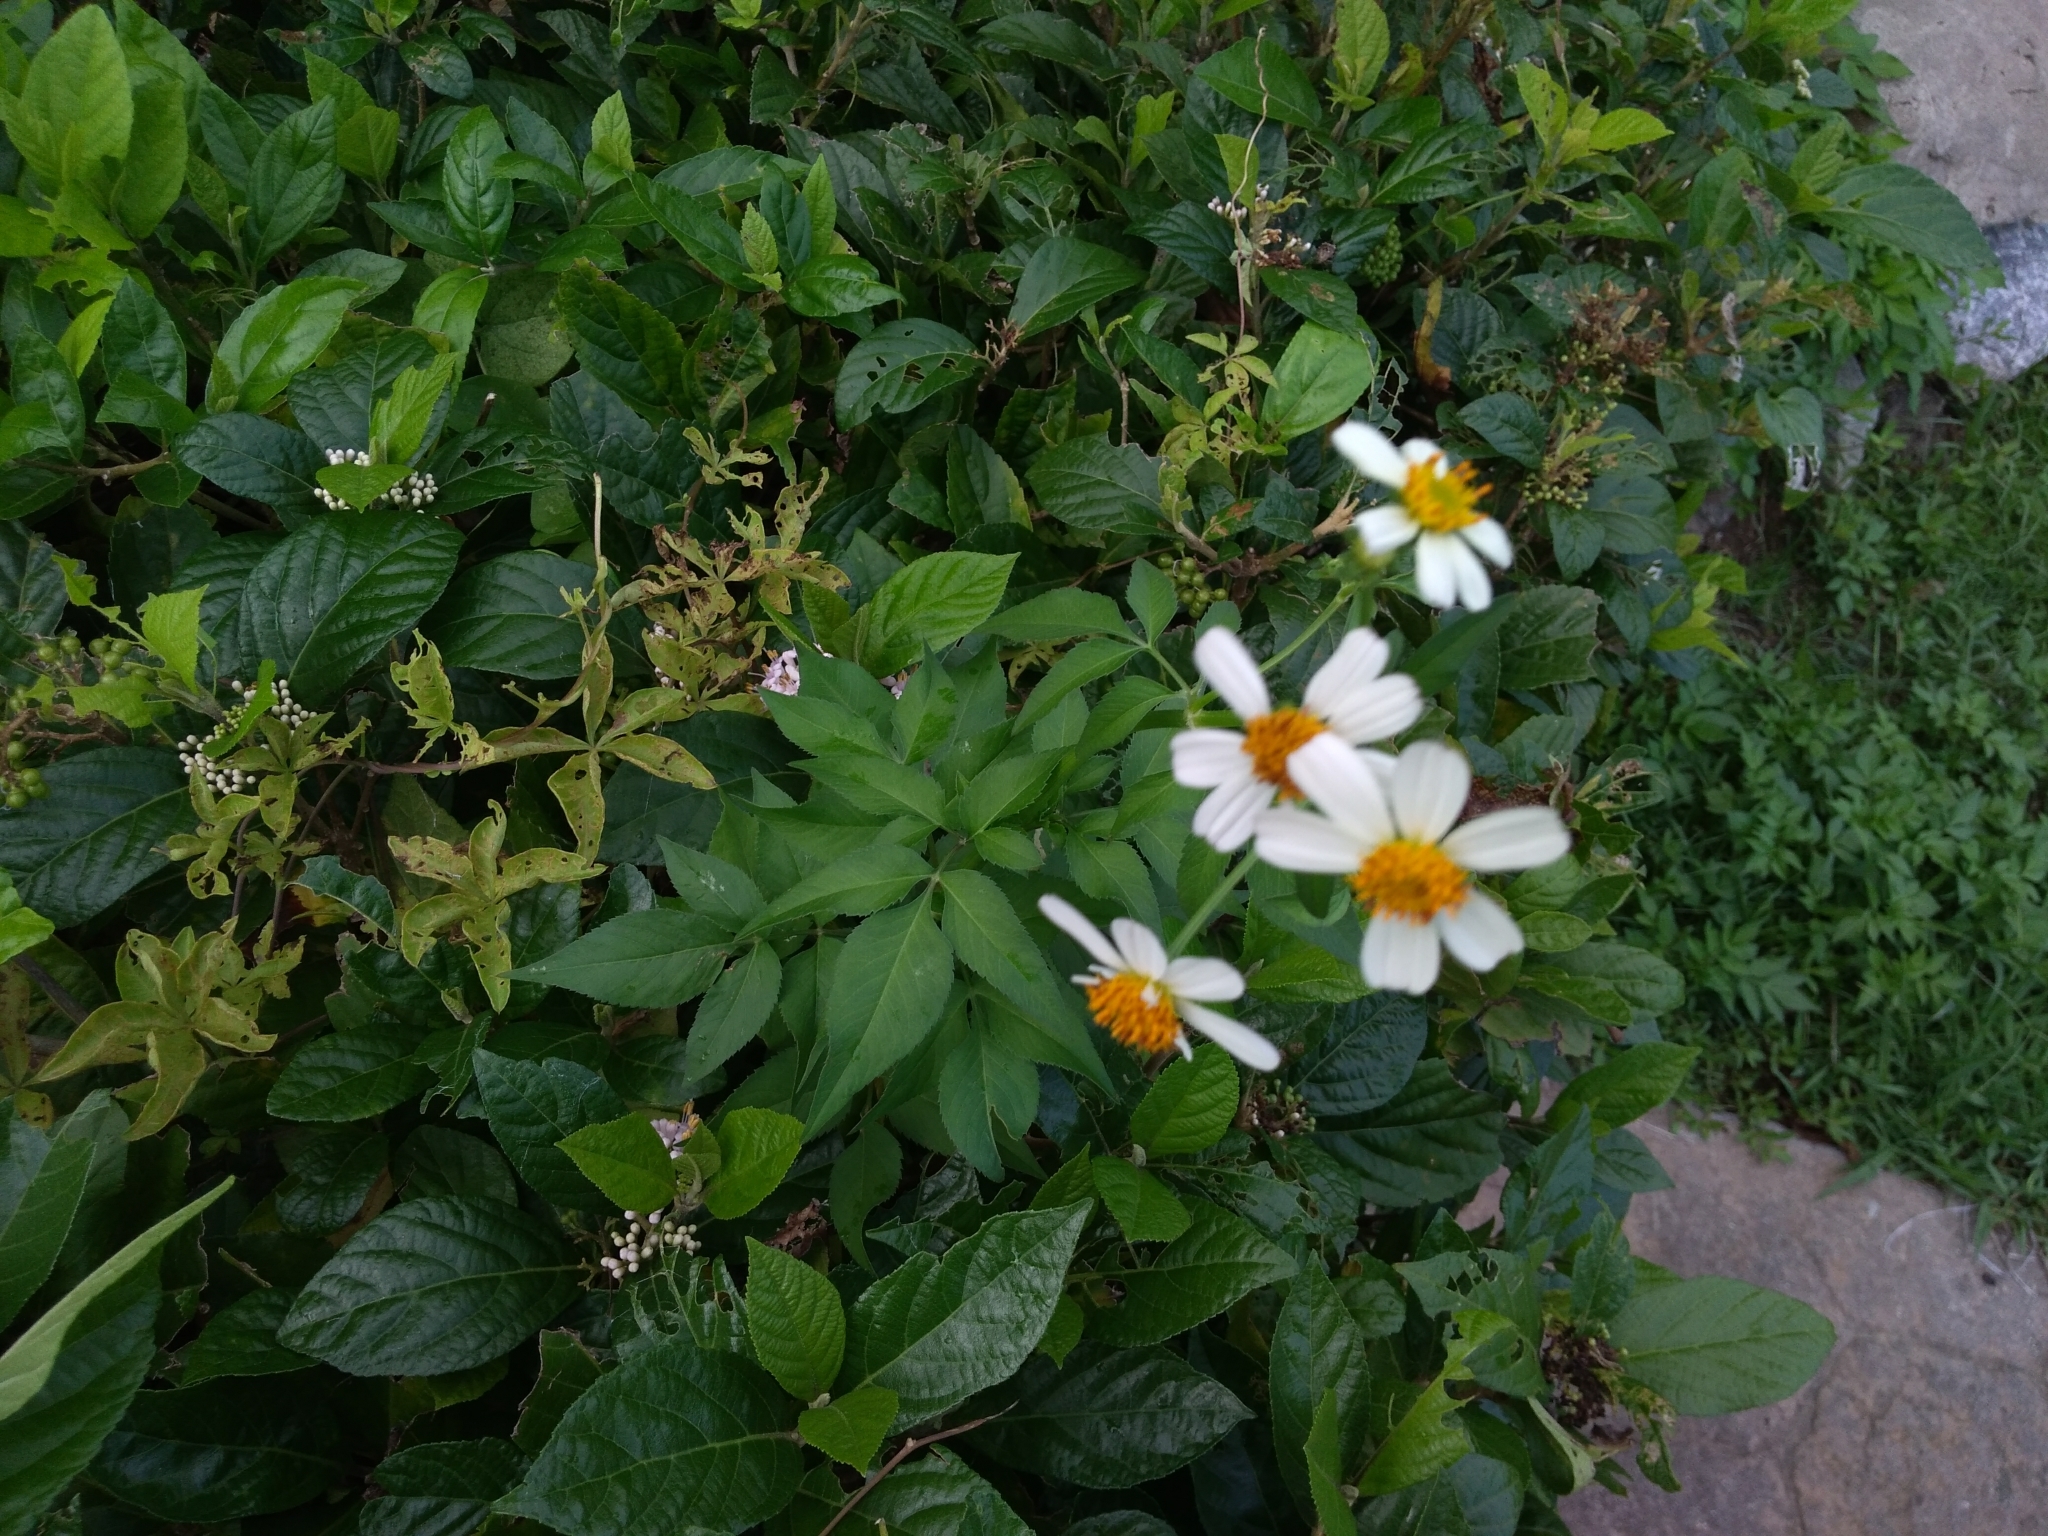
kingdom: Plantae
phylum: Tracheophyta
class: Magnoliopsida
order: Asterales
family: Asteraceae
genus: Bidens
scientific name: Bidens alba
